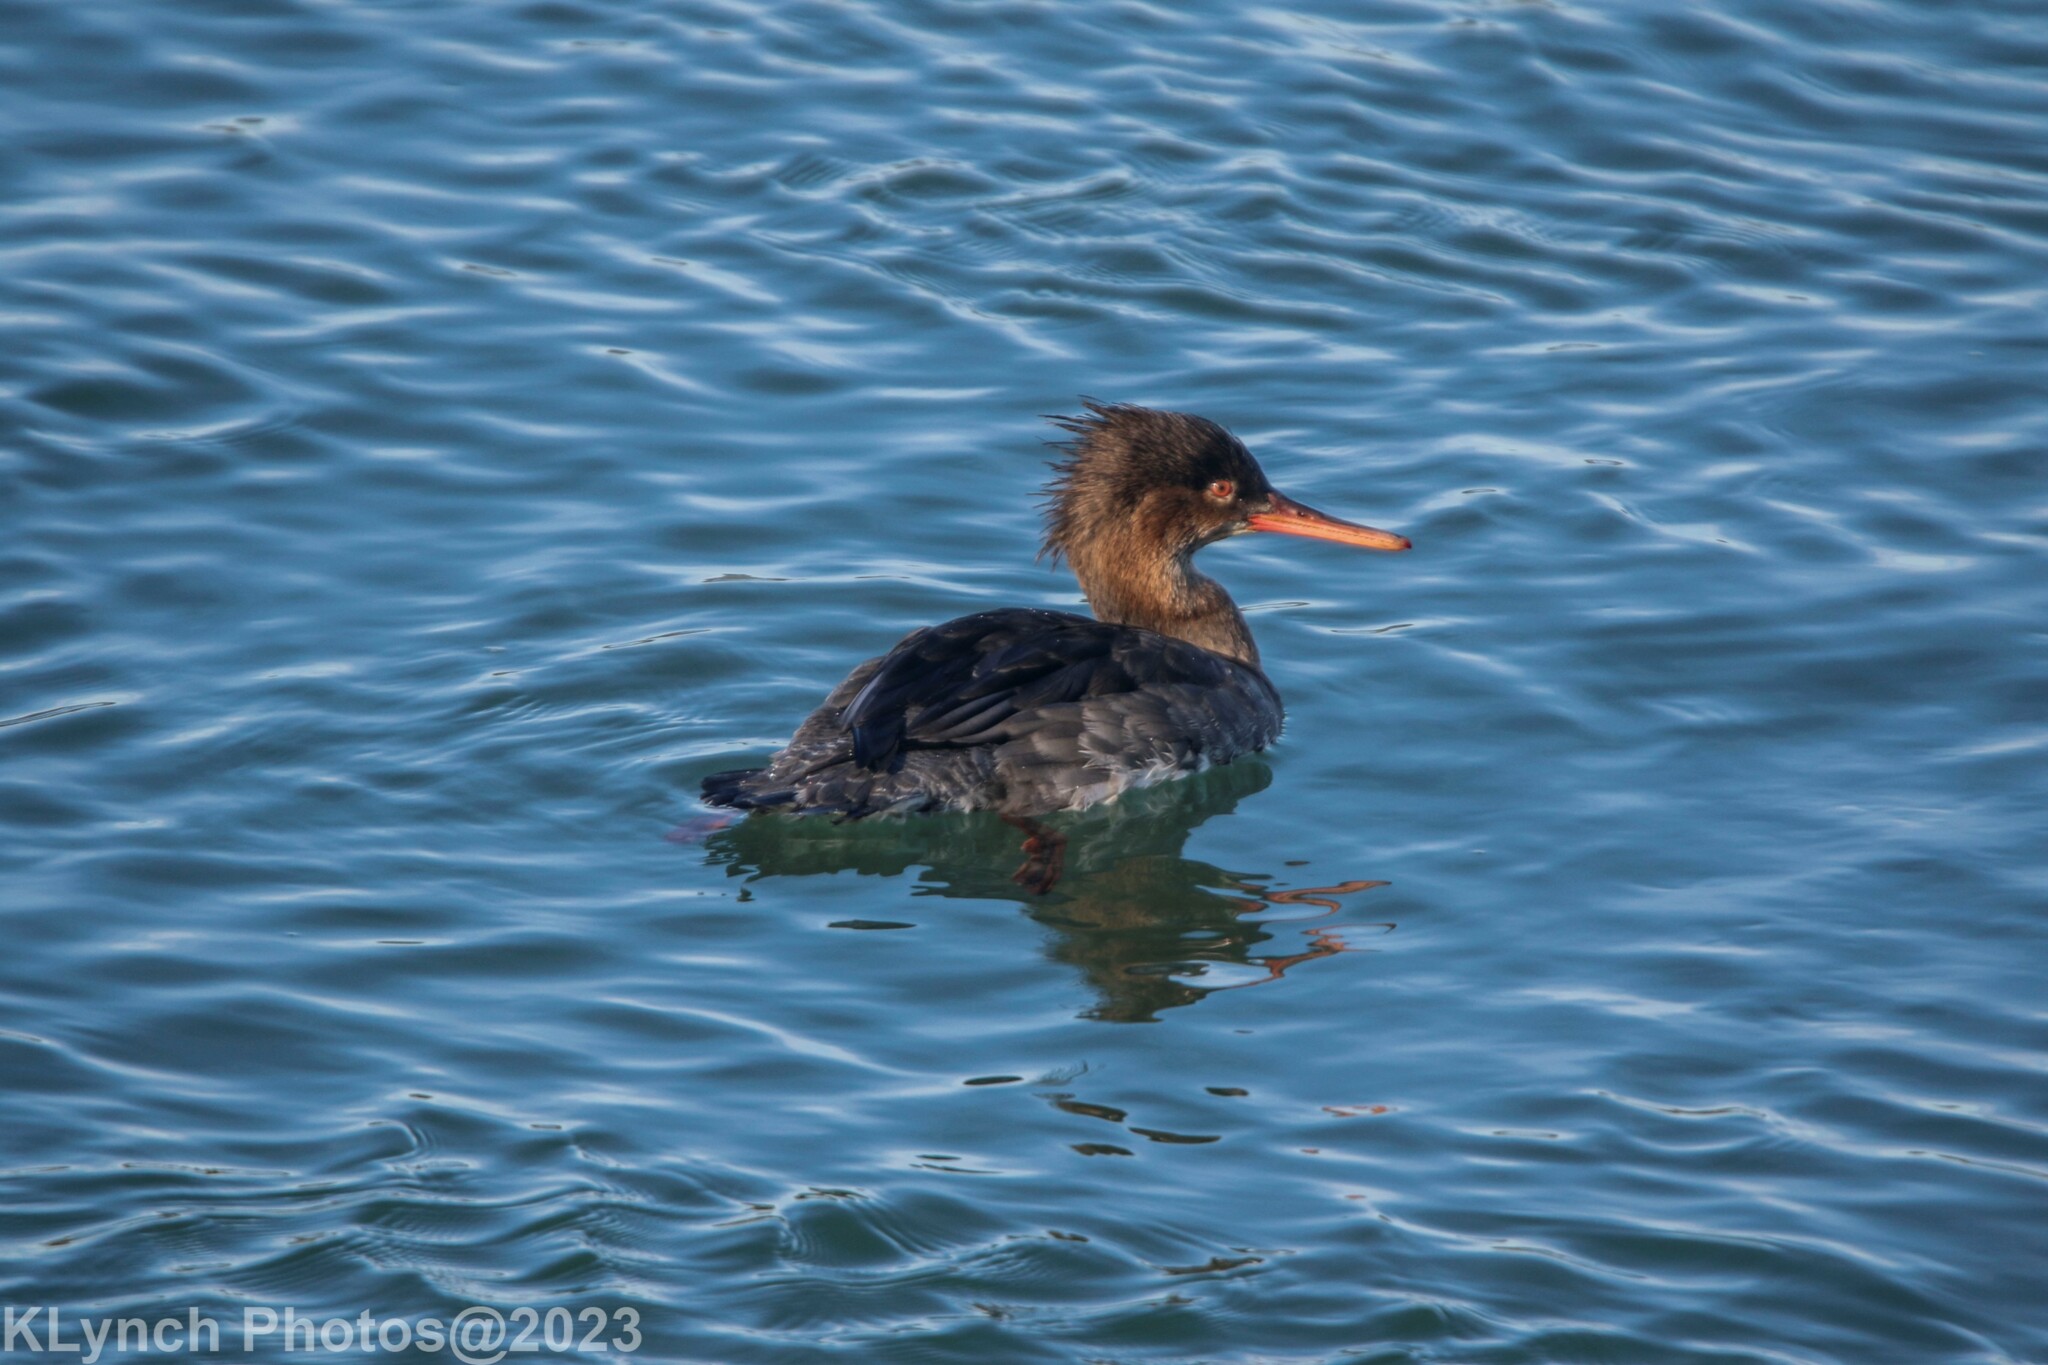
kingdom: Animalia
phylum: Chordata
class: Aves
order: Anseriformes
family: Anatidae
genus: Mergus
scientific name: Mergus serrator
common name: Red-breasted merganser
